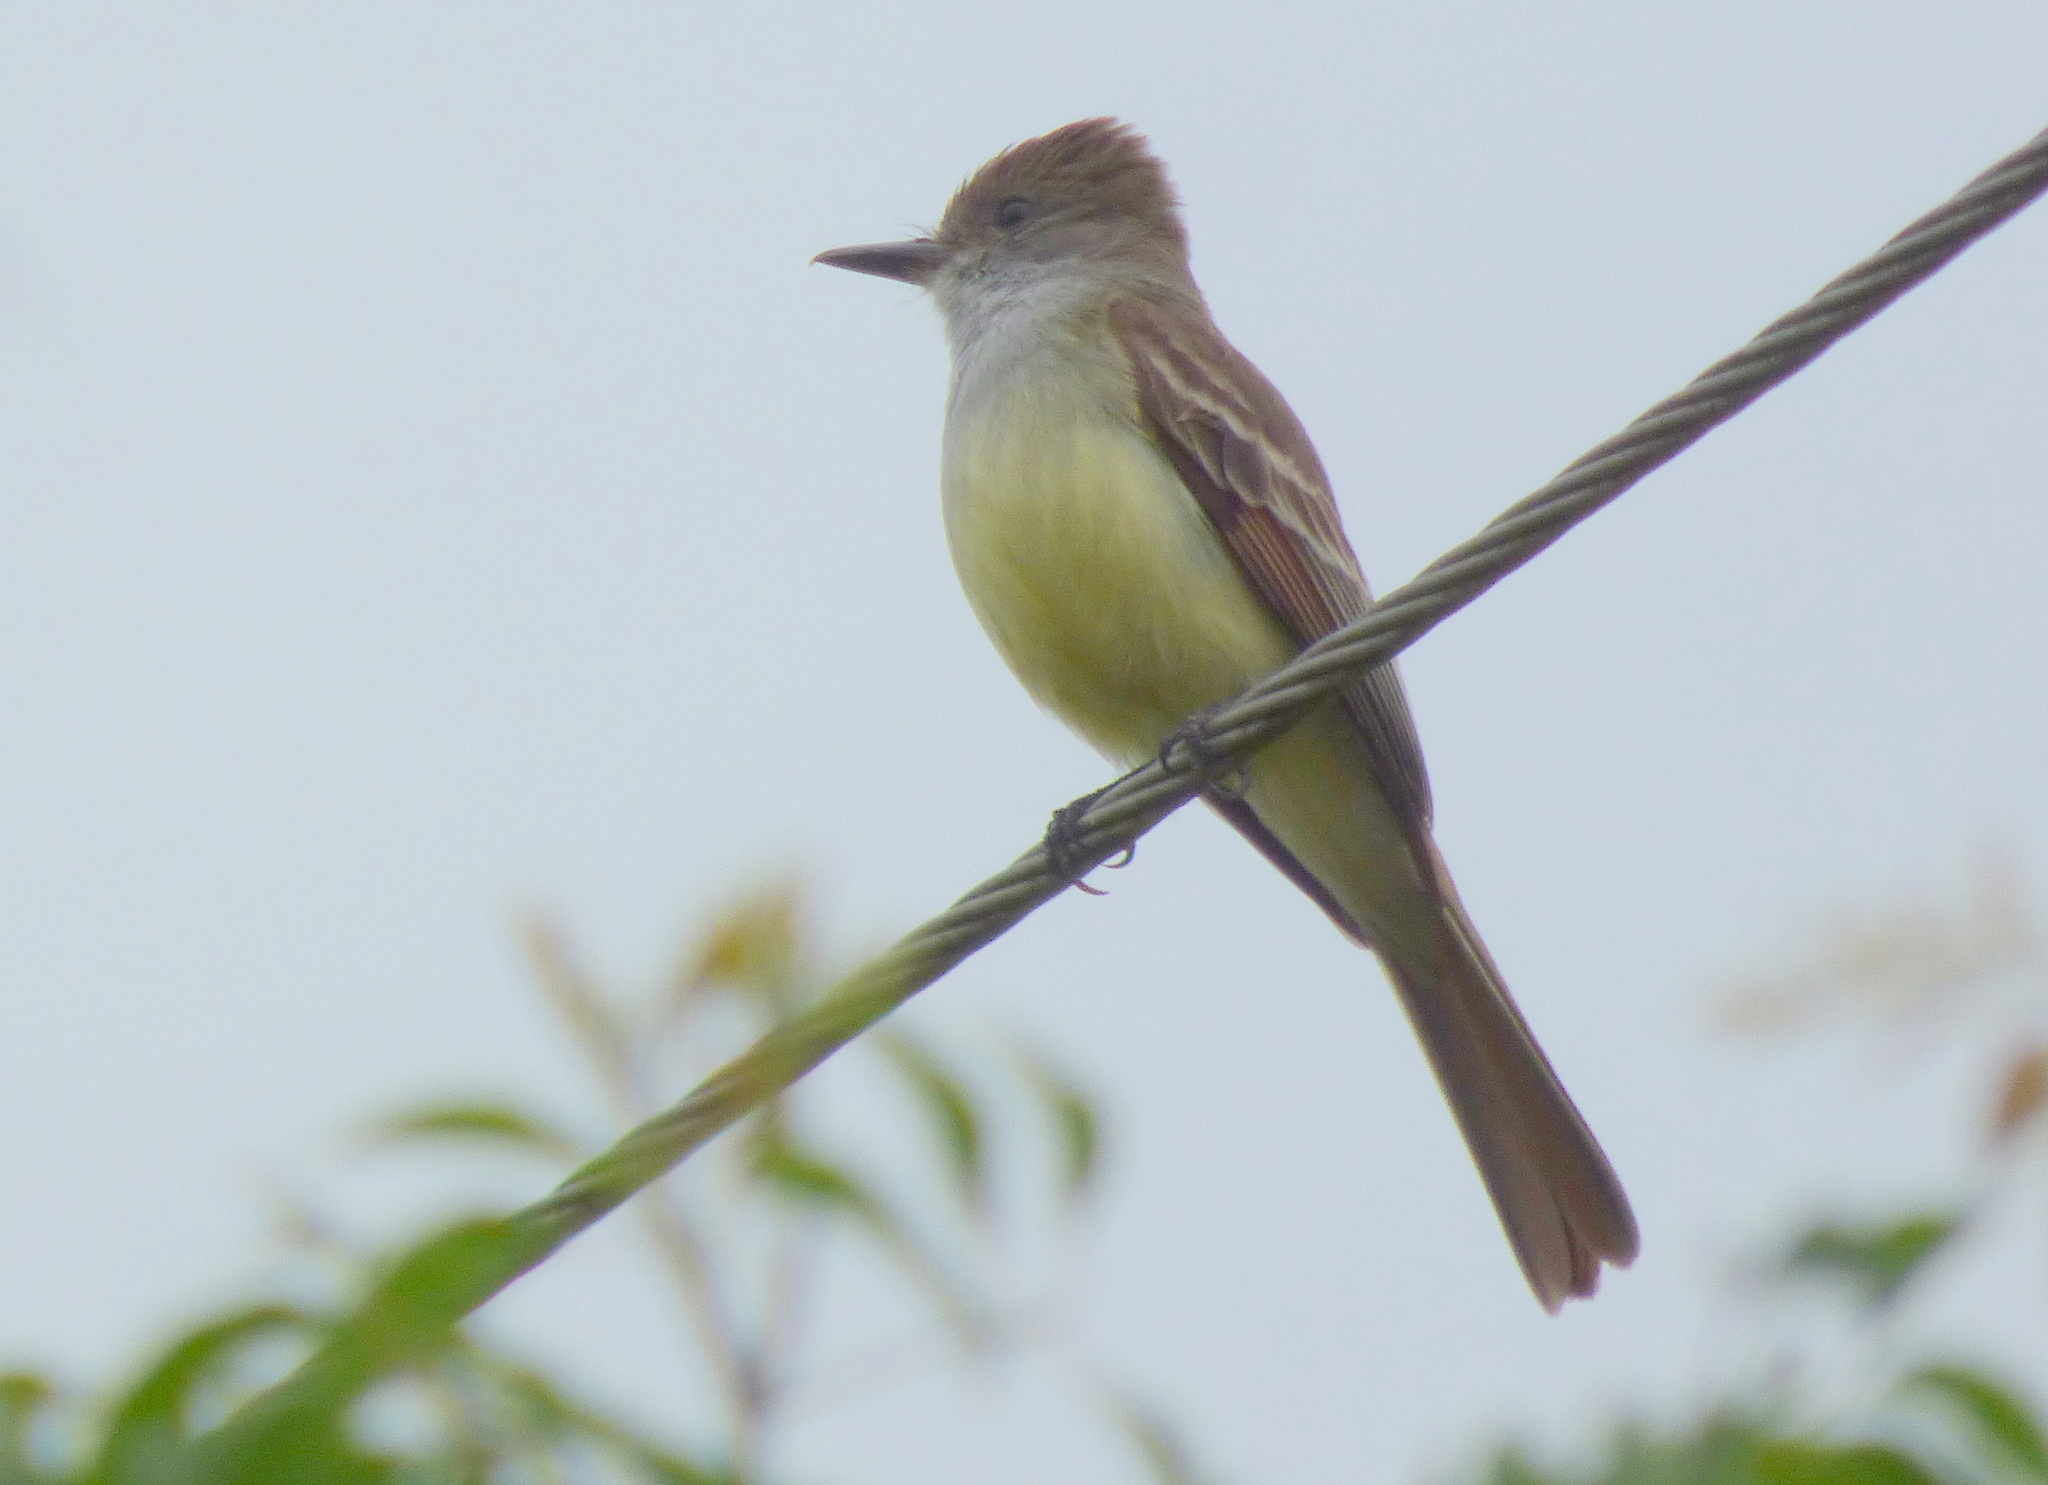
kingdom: Animalia
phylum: Chordata
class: Aves
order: Passeriformes
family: Tyrannidae
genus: Myiarchus
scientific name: Myiarchus tyrannulus
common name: Brown-crested flycatcher
